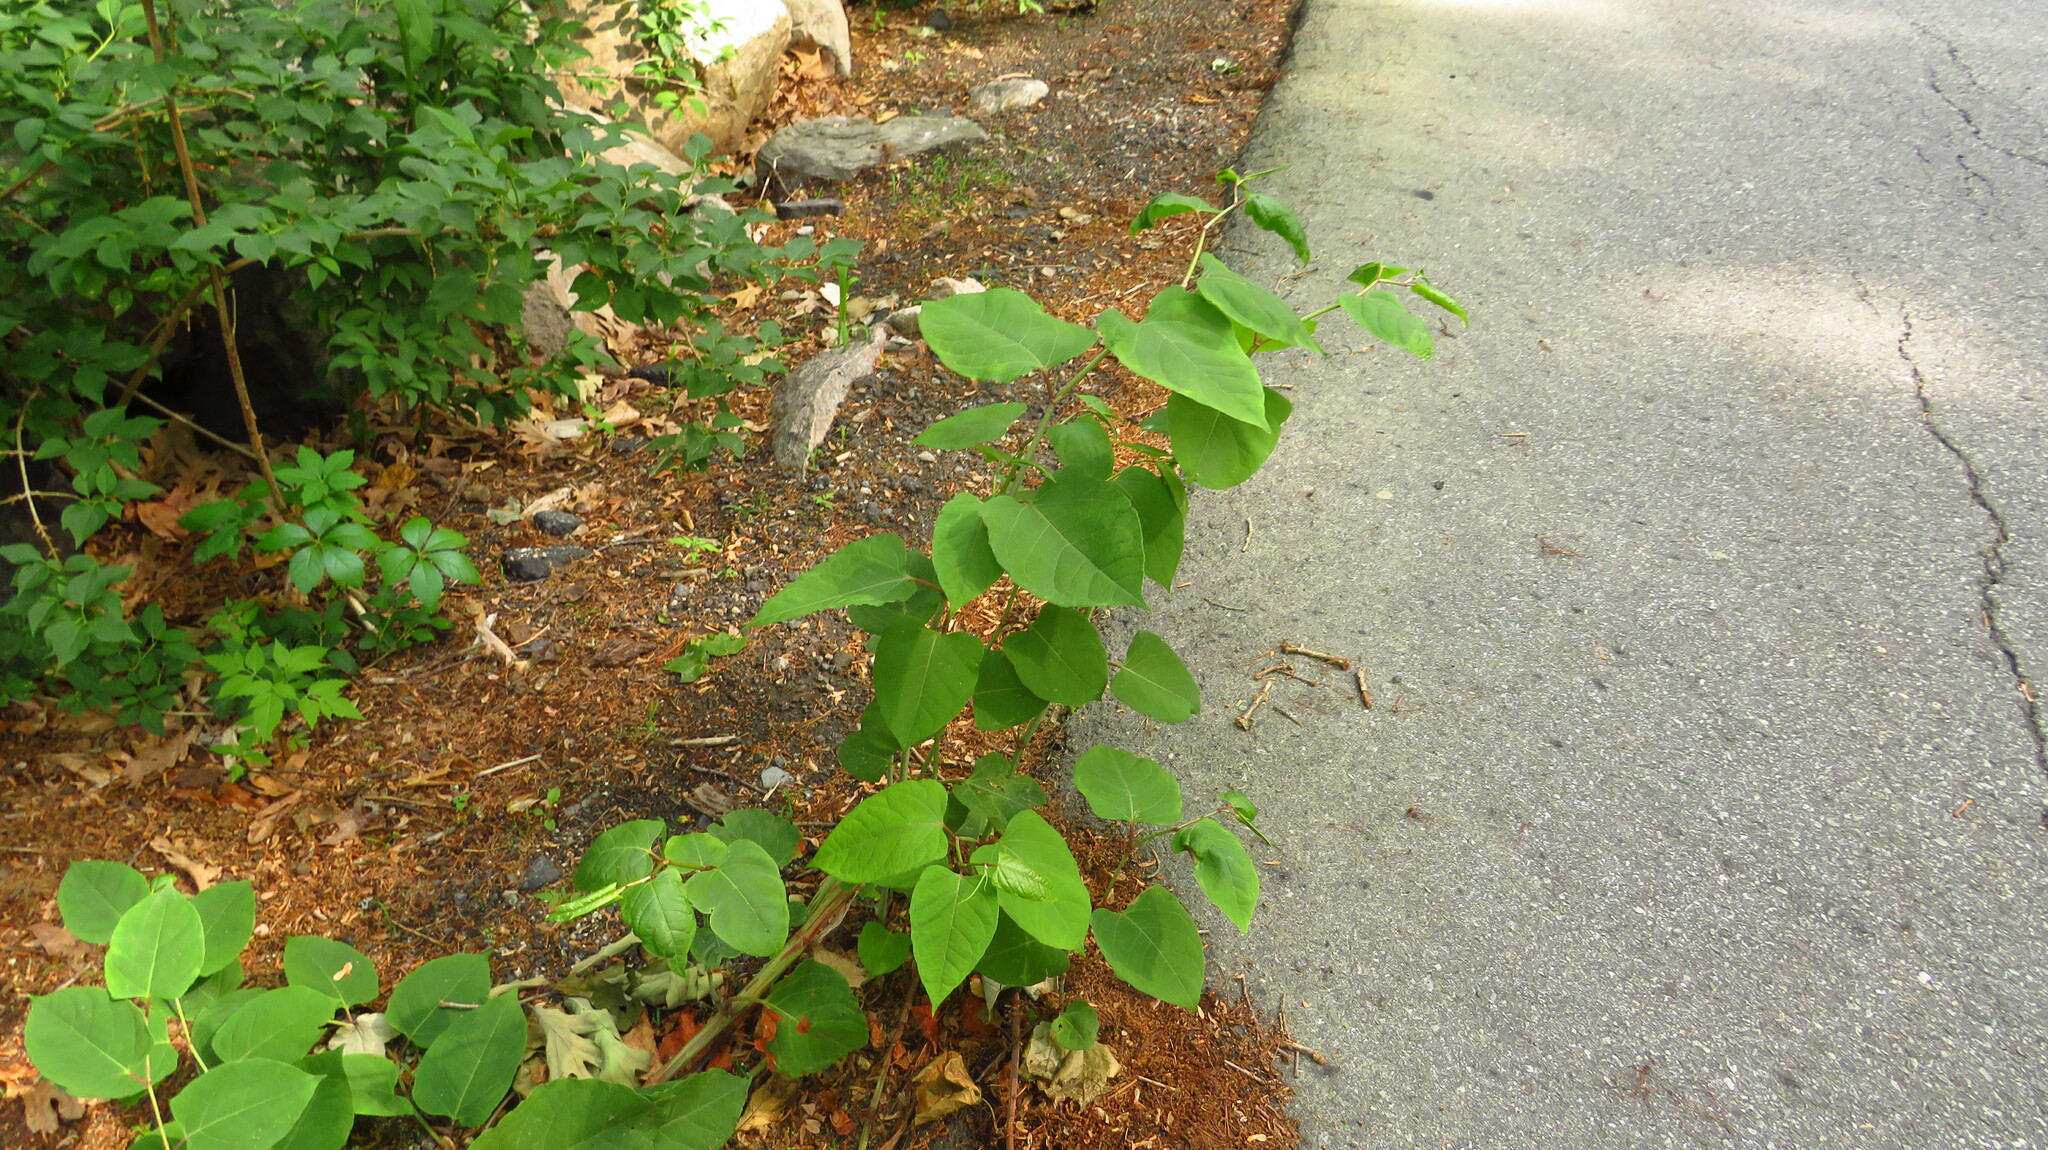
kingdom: Plantae
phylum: Tracheophyta
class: Magnoliopsida
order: Caryophyllales
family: Polygonaceae
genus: Reynoutria
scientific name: Reynoutria japonica
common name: Japanese knotweed
